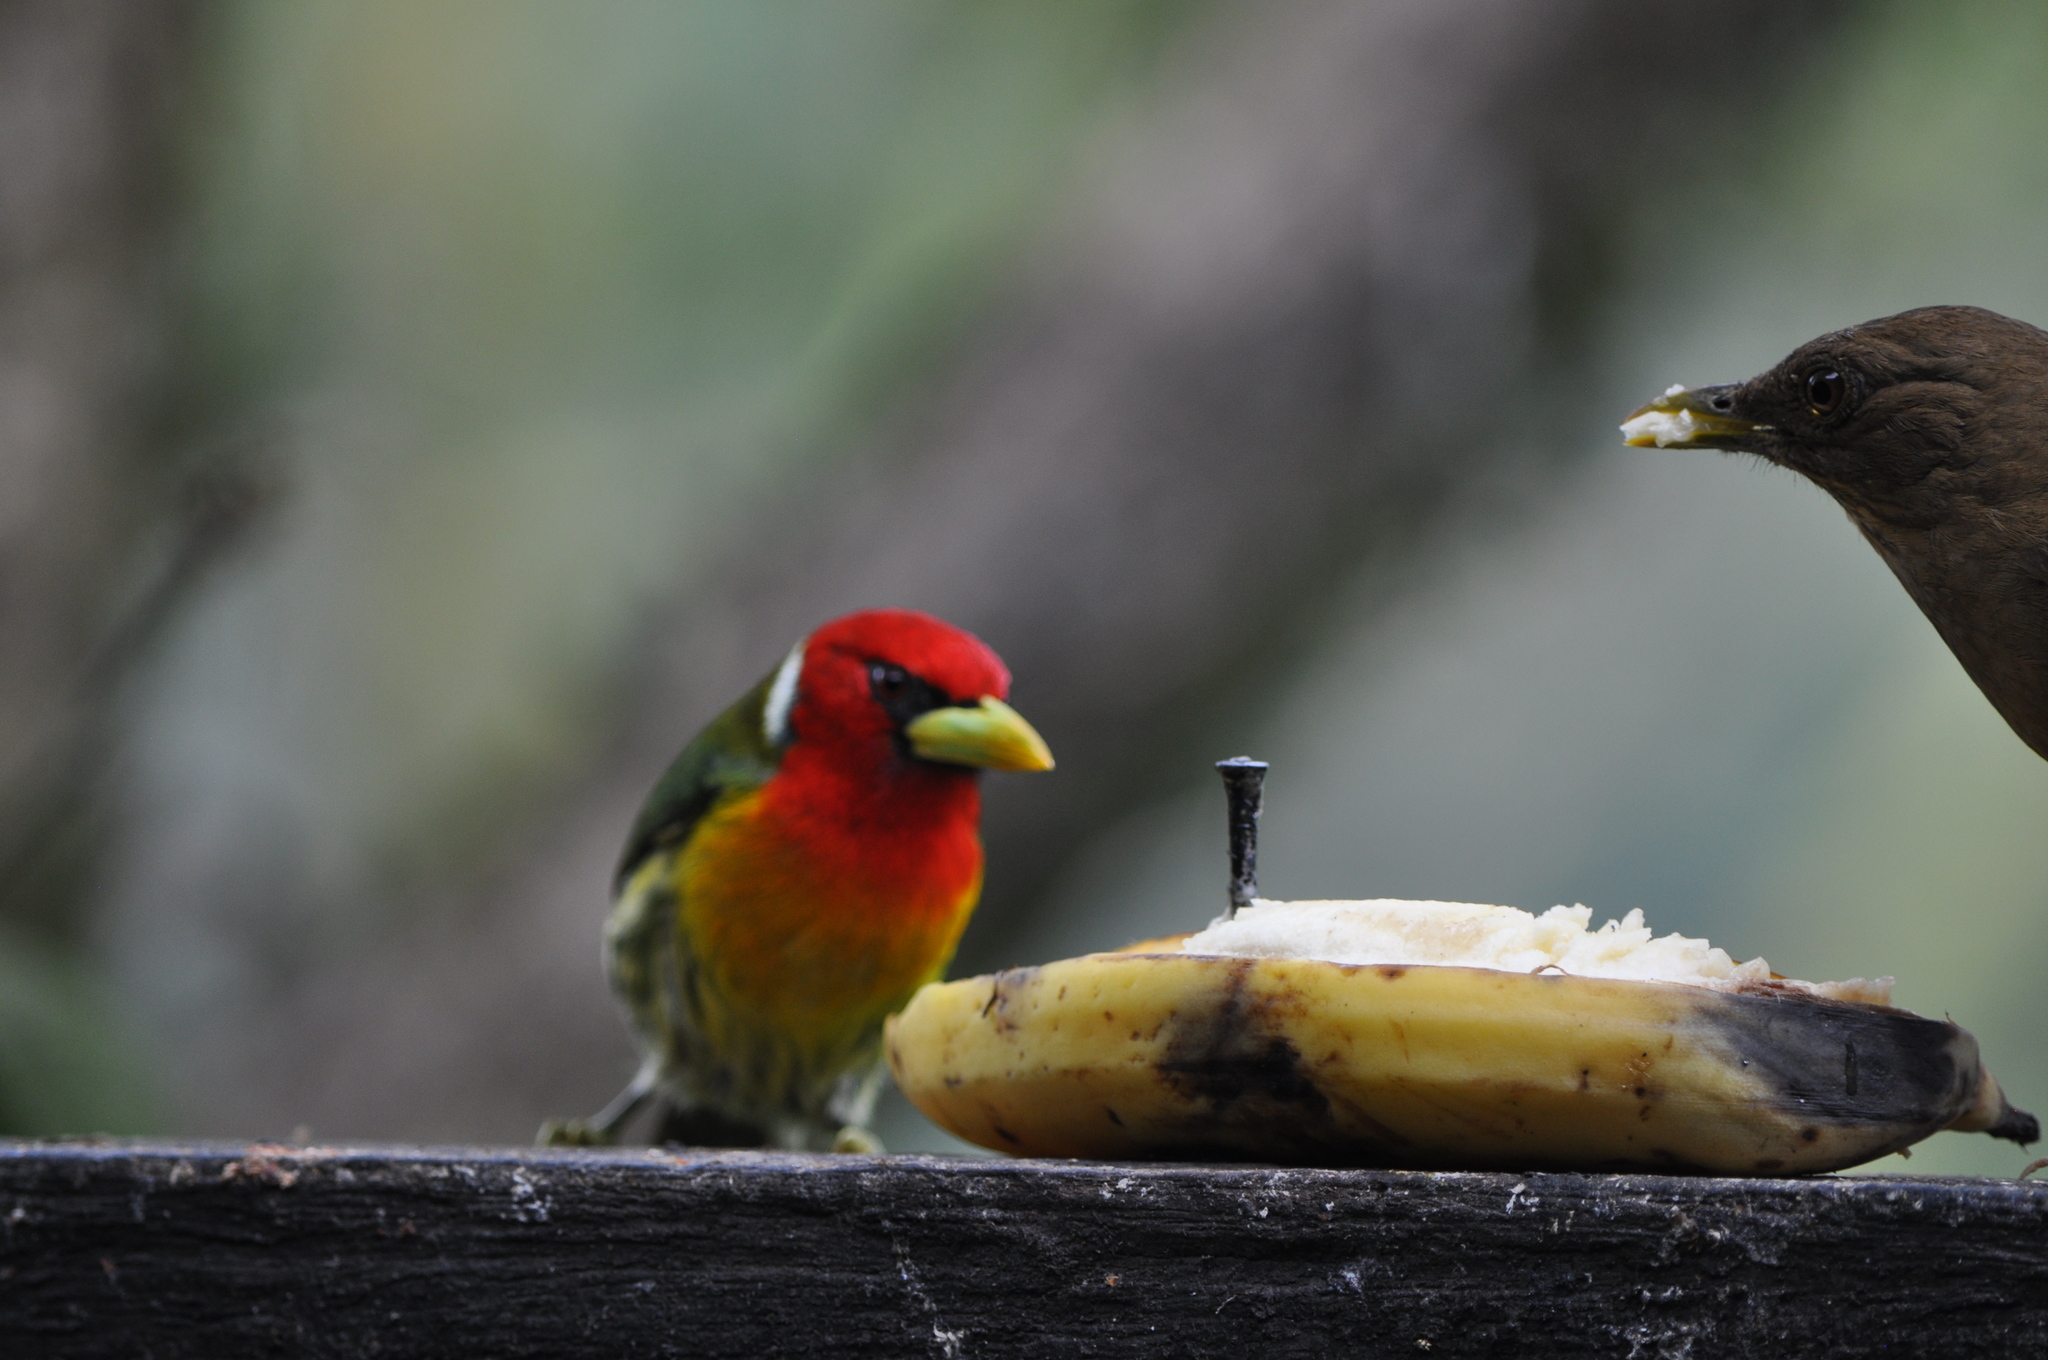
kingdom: Animalia
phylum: Chordata
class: Aves
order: Piciformes
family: Capitonidae
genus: Eubucco
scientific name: Eubucco bourcierii
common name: Red-headed barbet
